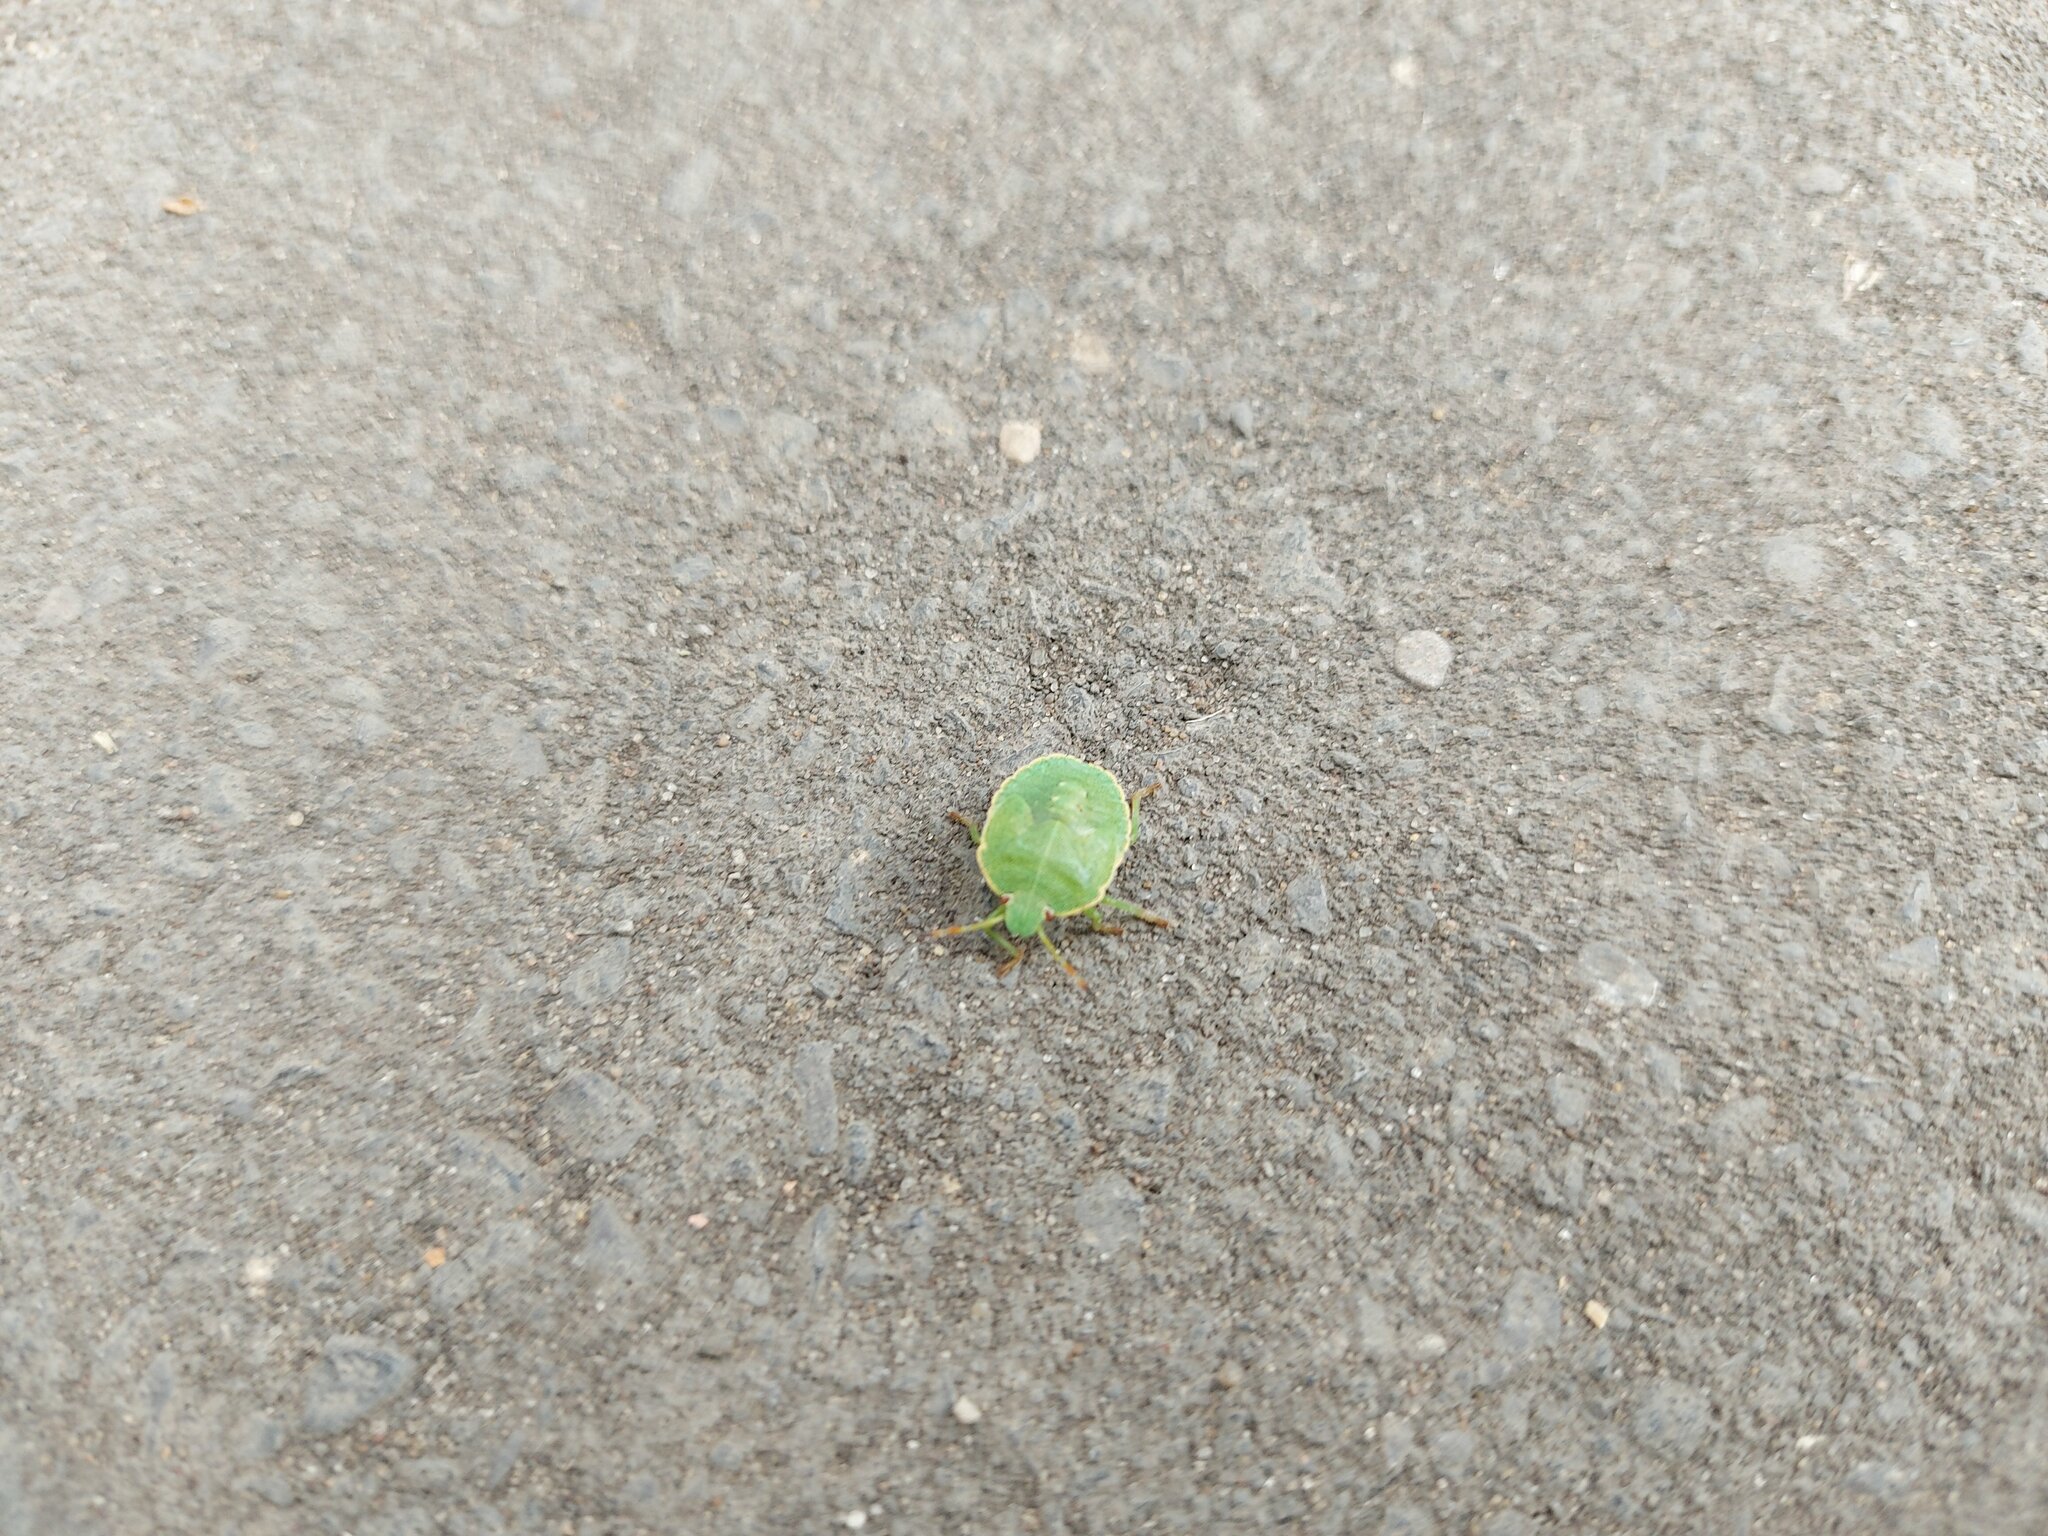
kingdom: Animalia
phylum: Arthropoda
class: Insecta
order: Hemiptera
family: Pentatomidae
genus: Palomena
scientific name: Palomena prasina
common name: Green shieldbug
